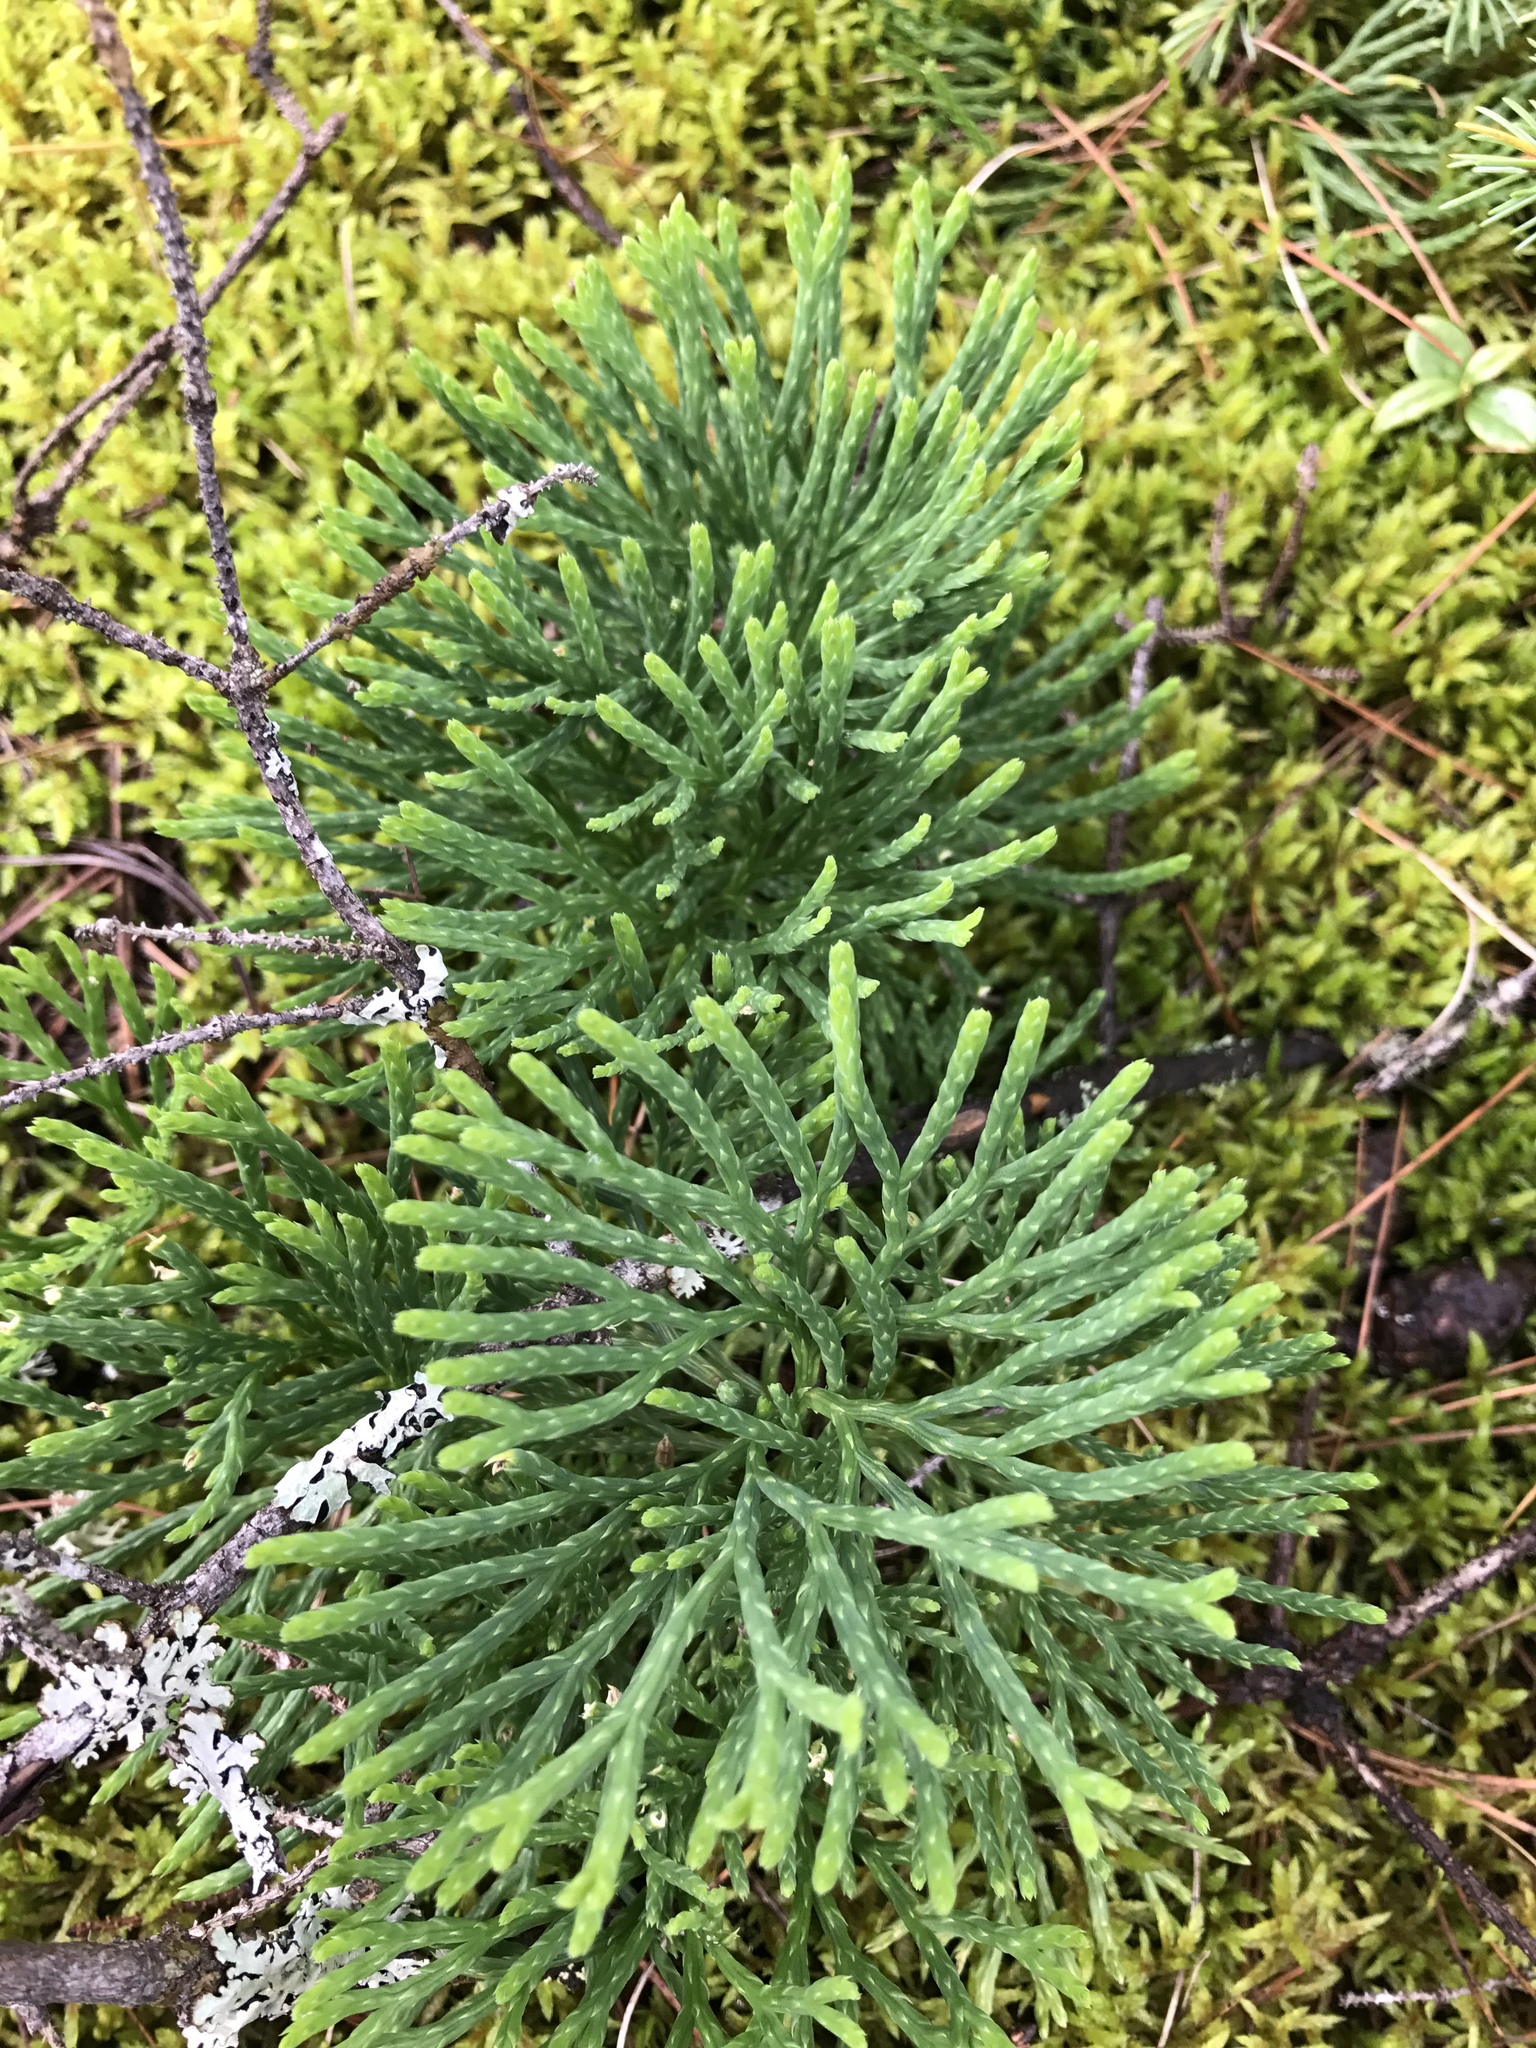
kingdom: Plantae
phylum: Tracheophyta
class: Lycopodiopsida
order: Lycopodiales
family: Lycopodiaceae
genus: Diphasiastrum
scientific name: Diphasiastrum tristachyum
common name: Blue ground-cedar
